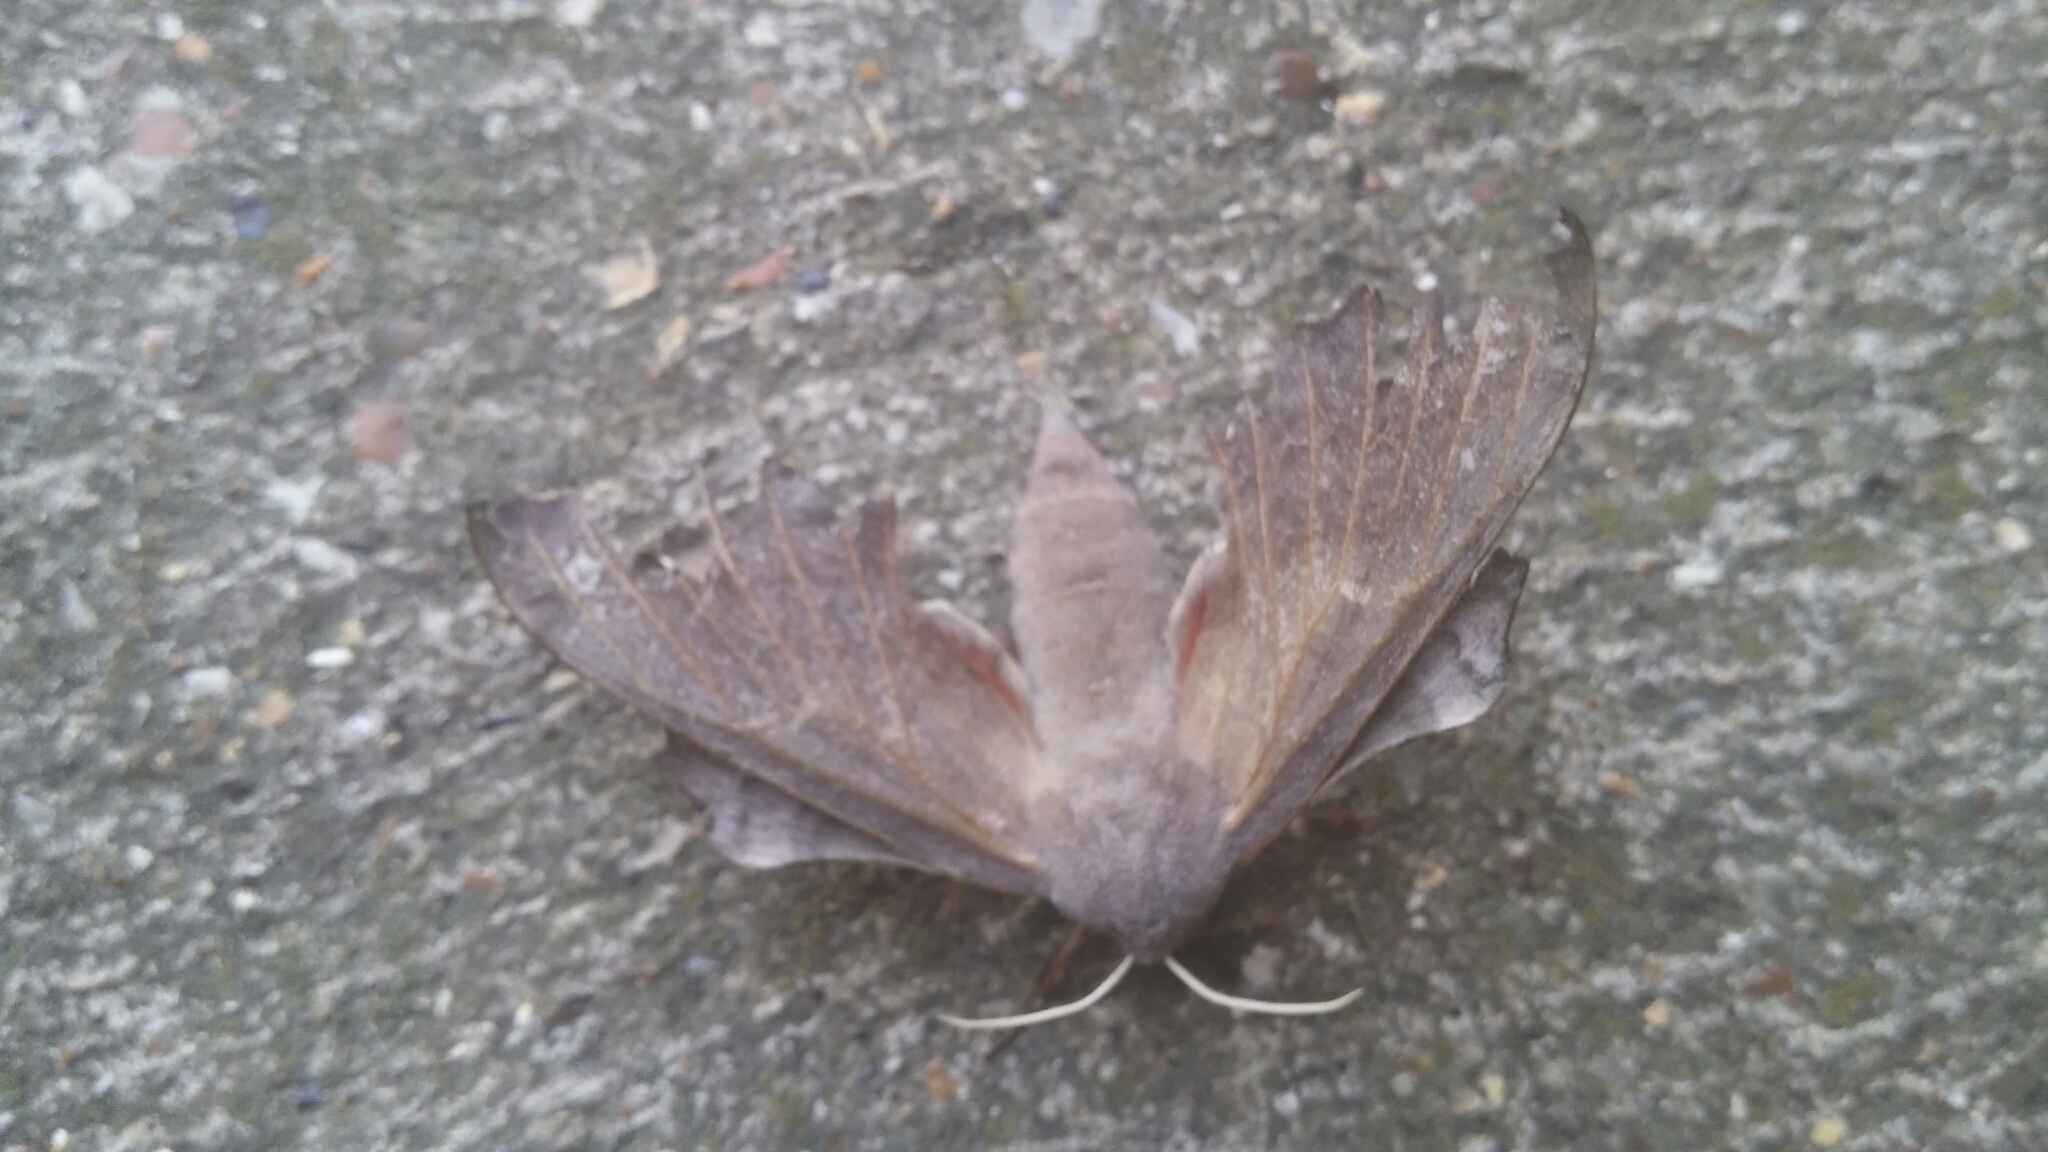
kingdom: Animalia
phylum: Arthropoda
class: Insecta
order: Lepidoptera
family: Sphingidae
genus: Laothoe
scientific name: Laothoe populi
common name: Poplar hawk-moth
